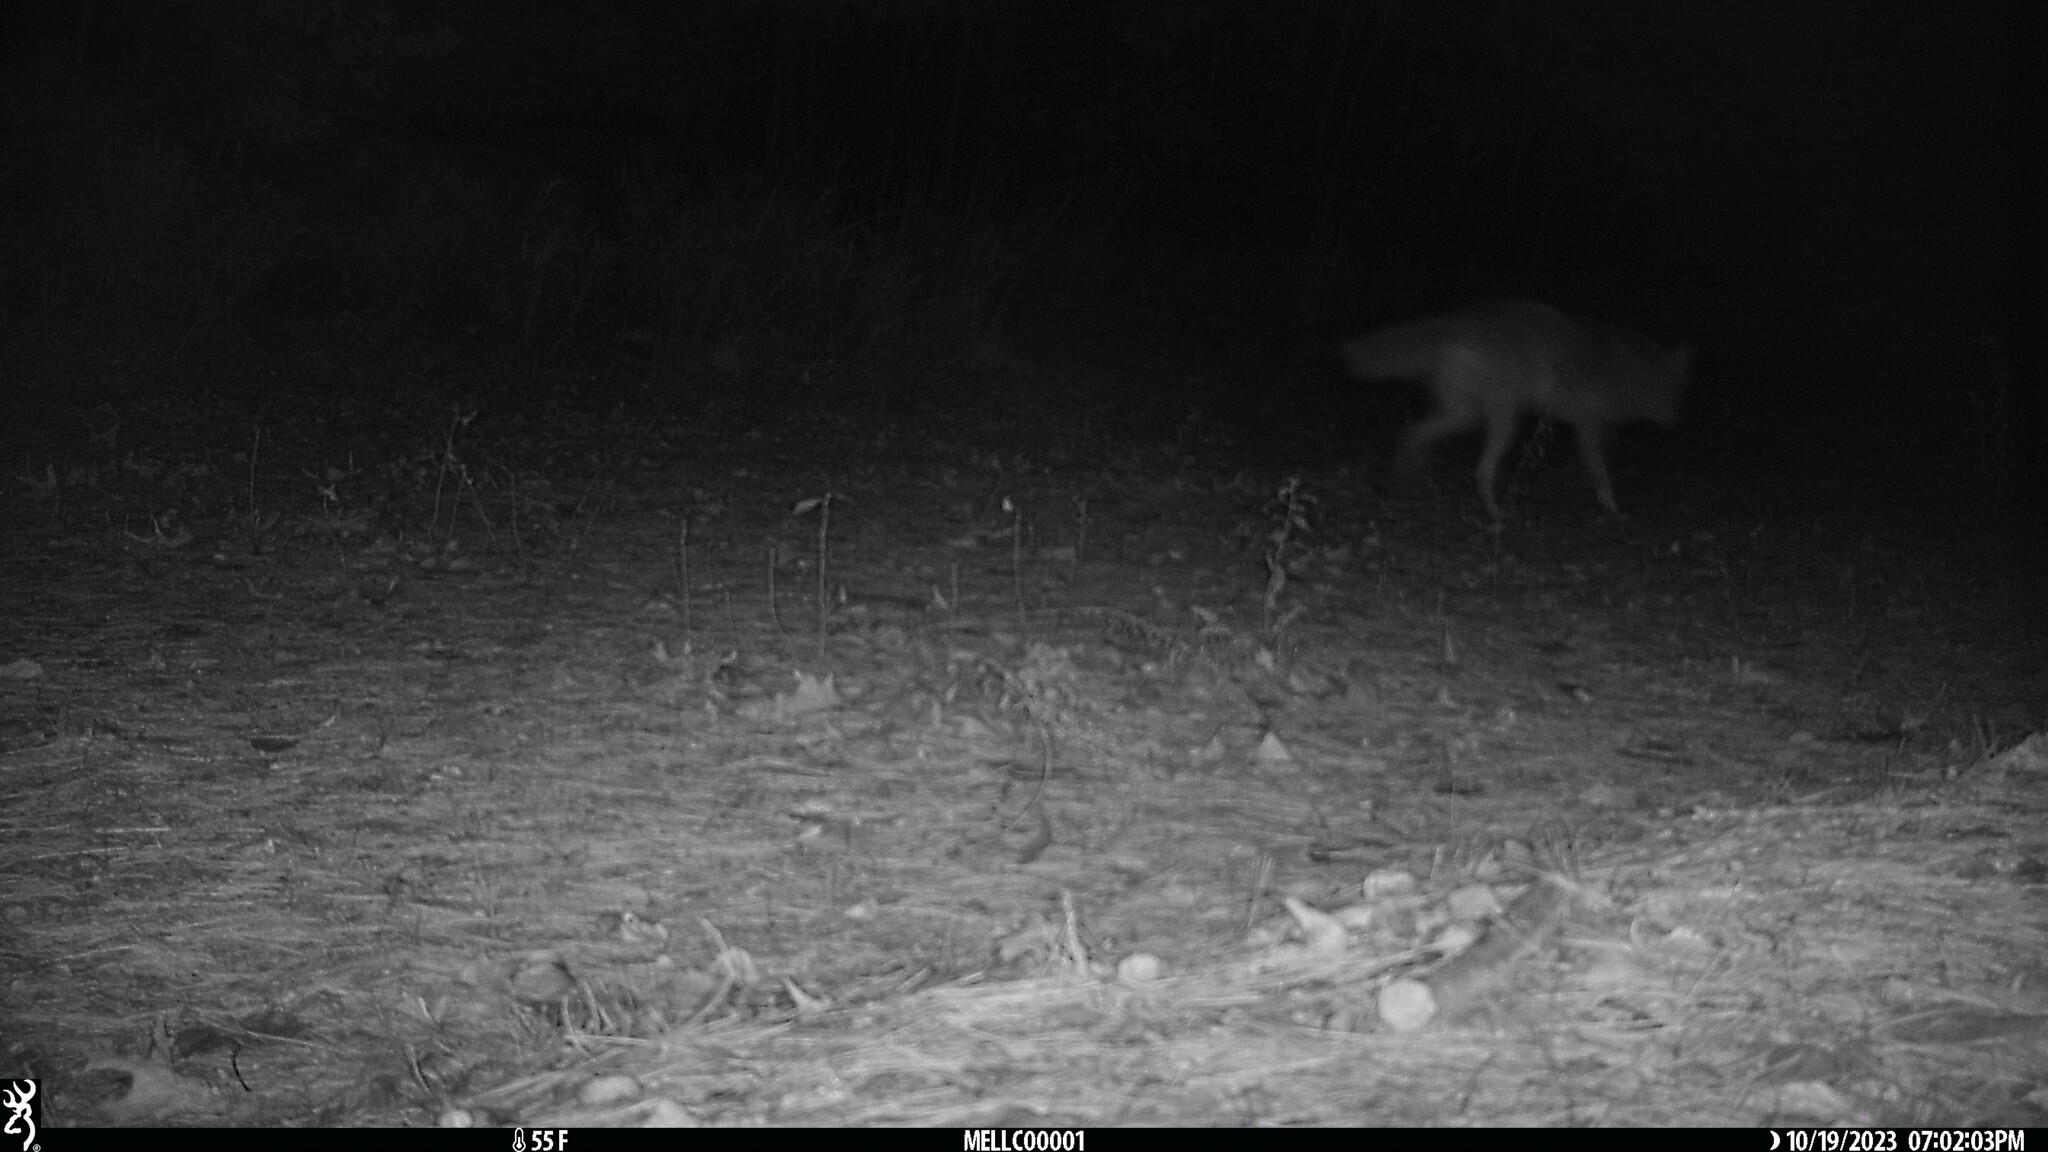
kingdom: Animalia
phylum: Chordata
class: Mammalia
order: Carnivora
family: Canidae
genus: Canis
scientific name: Canis latrans
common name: Coyote
